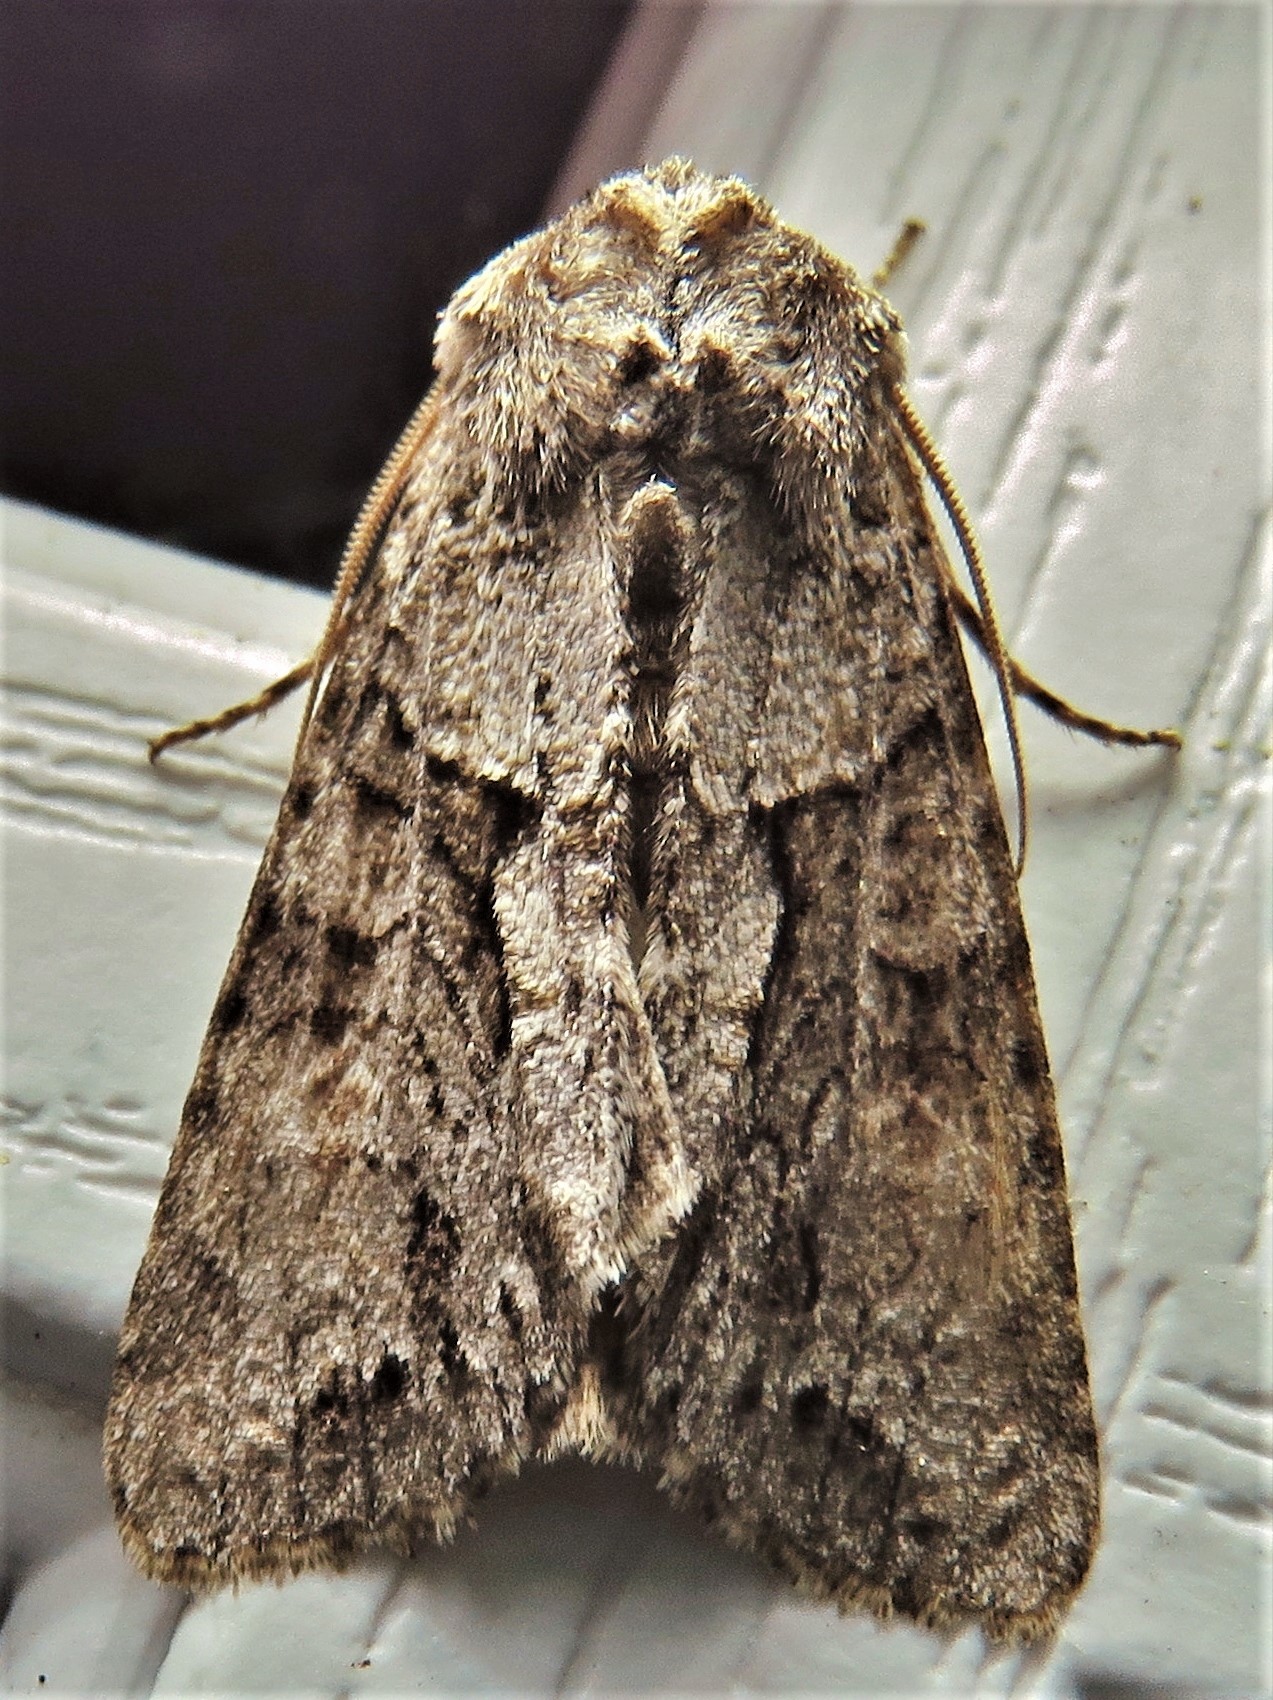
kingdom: Animalia
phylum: Arthropoda
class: Insecta
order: Lepidoptera
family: Noctuidae
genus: Achatia
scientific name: Achatia distincta
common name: Distinct quaker
